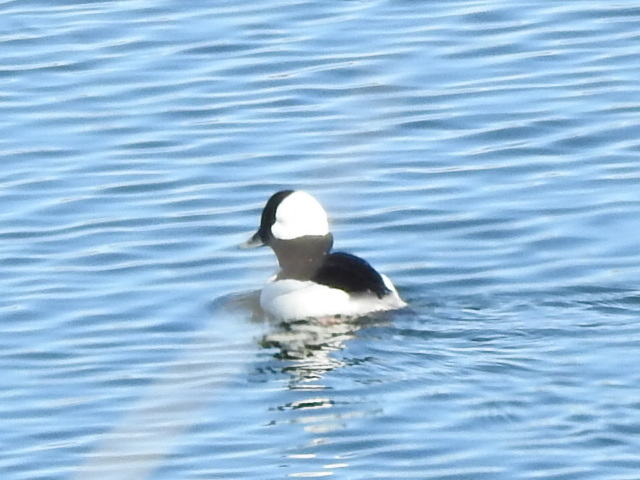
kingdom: Animalia
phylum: Chordata
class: Aves
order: Anseriformes
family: Anatidae
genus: Bucephala
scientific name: Bucephala albeola
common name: Bufflehead
